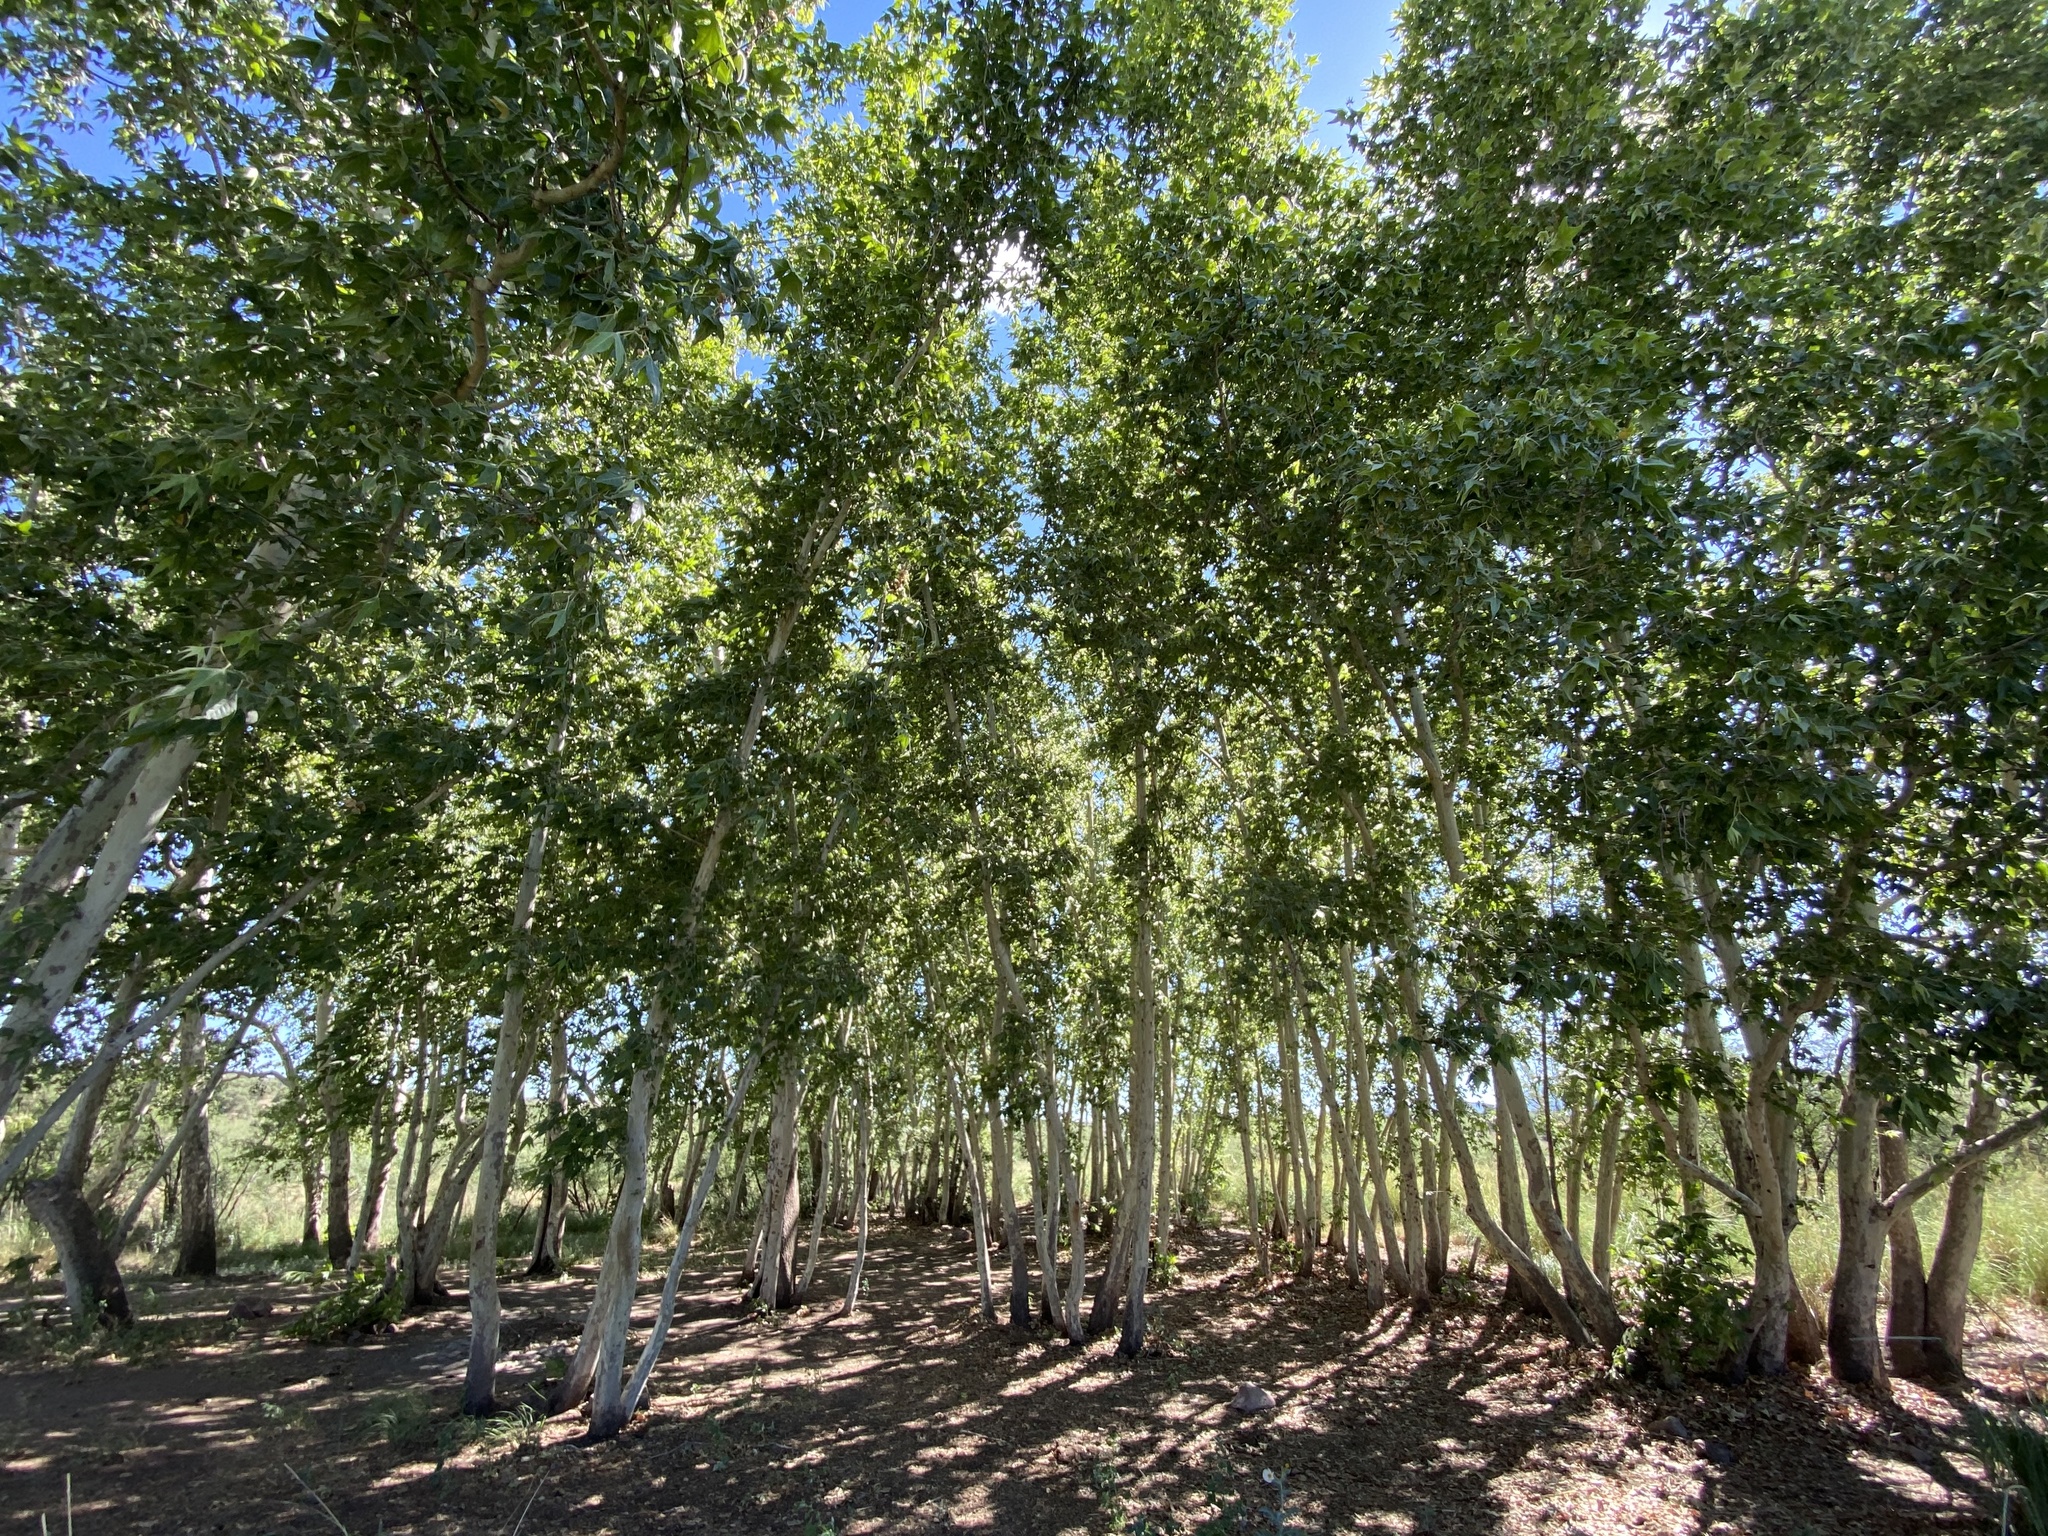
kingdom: Plantae
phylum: Tracheophyta
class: Magnoliopsida
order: Proteales
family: Platanaceae
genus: Platanus
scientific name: Platanus wrightii
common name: Arizona sycamore
